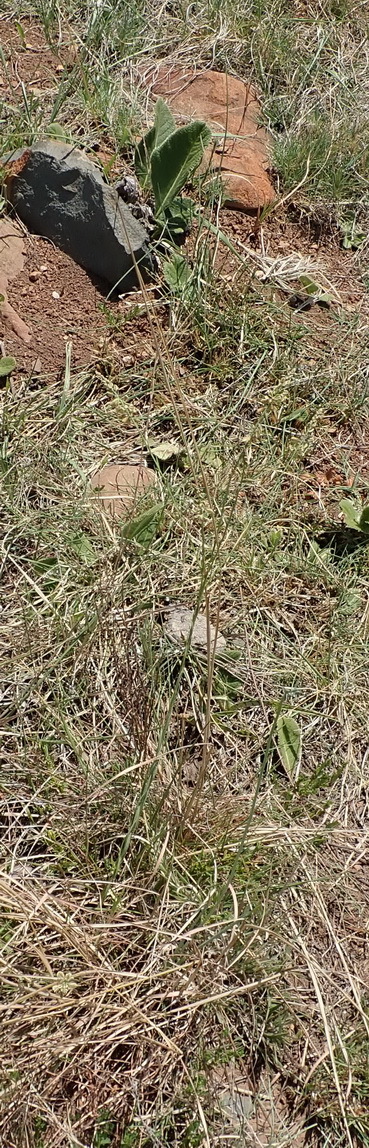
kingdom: Plantae
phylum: Tracheophyta
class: Magnoliopsida
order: Fabales
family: Polygalaceae
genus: Polygala
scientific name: Polygala hottentotta
